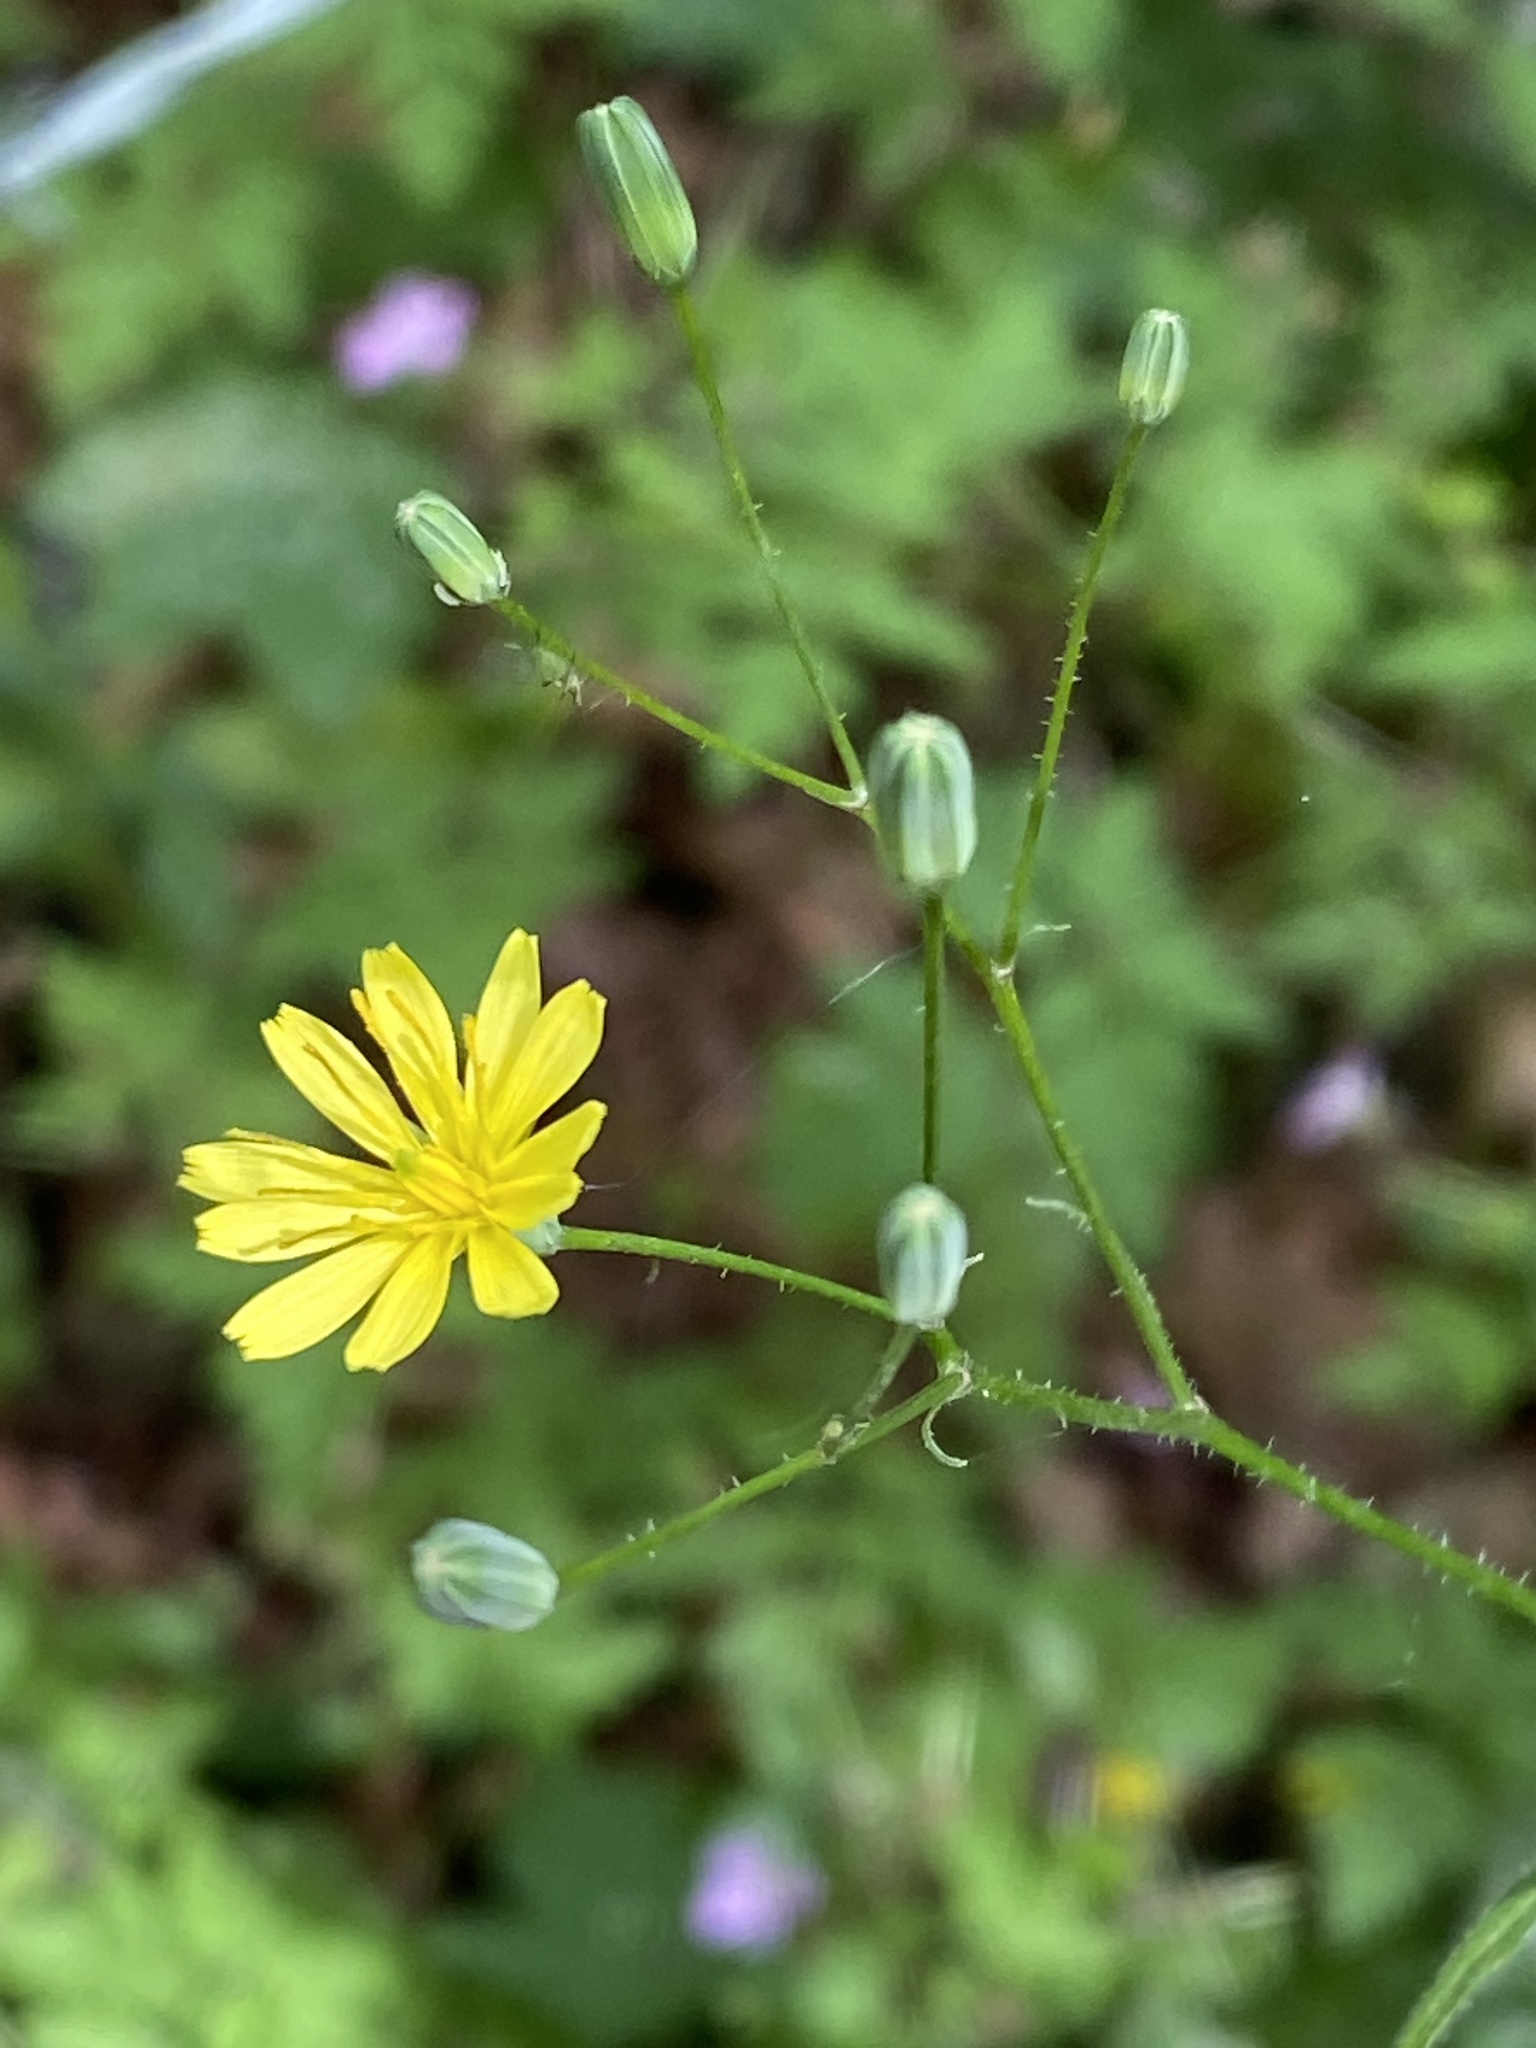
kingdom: Plantae
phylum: Tracheophyta
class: Magnoliopsida
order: Asterales
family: Asteraceae
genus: Lapsana
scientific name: Lapsana communis
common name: Nipplewort
